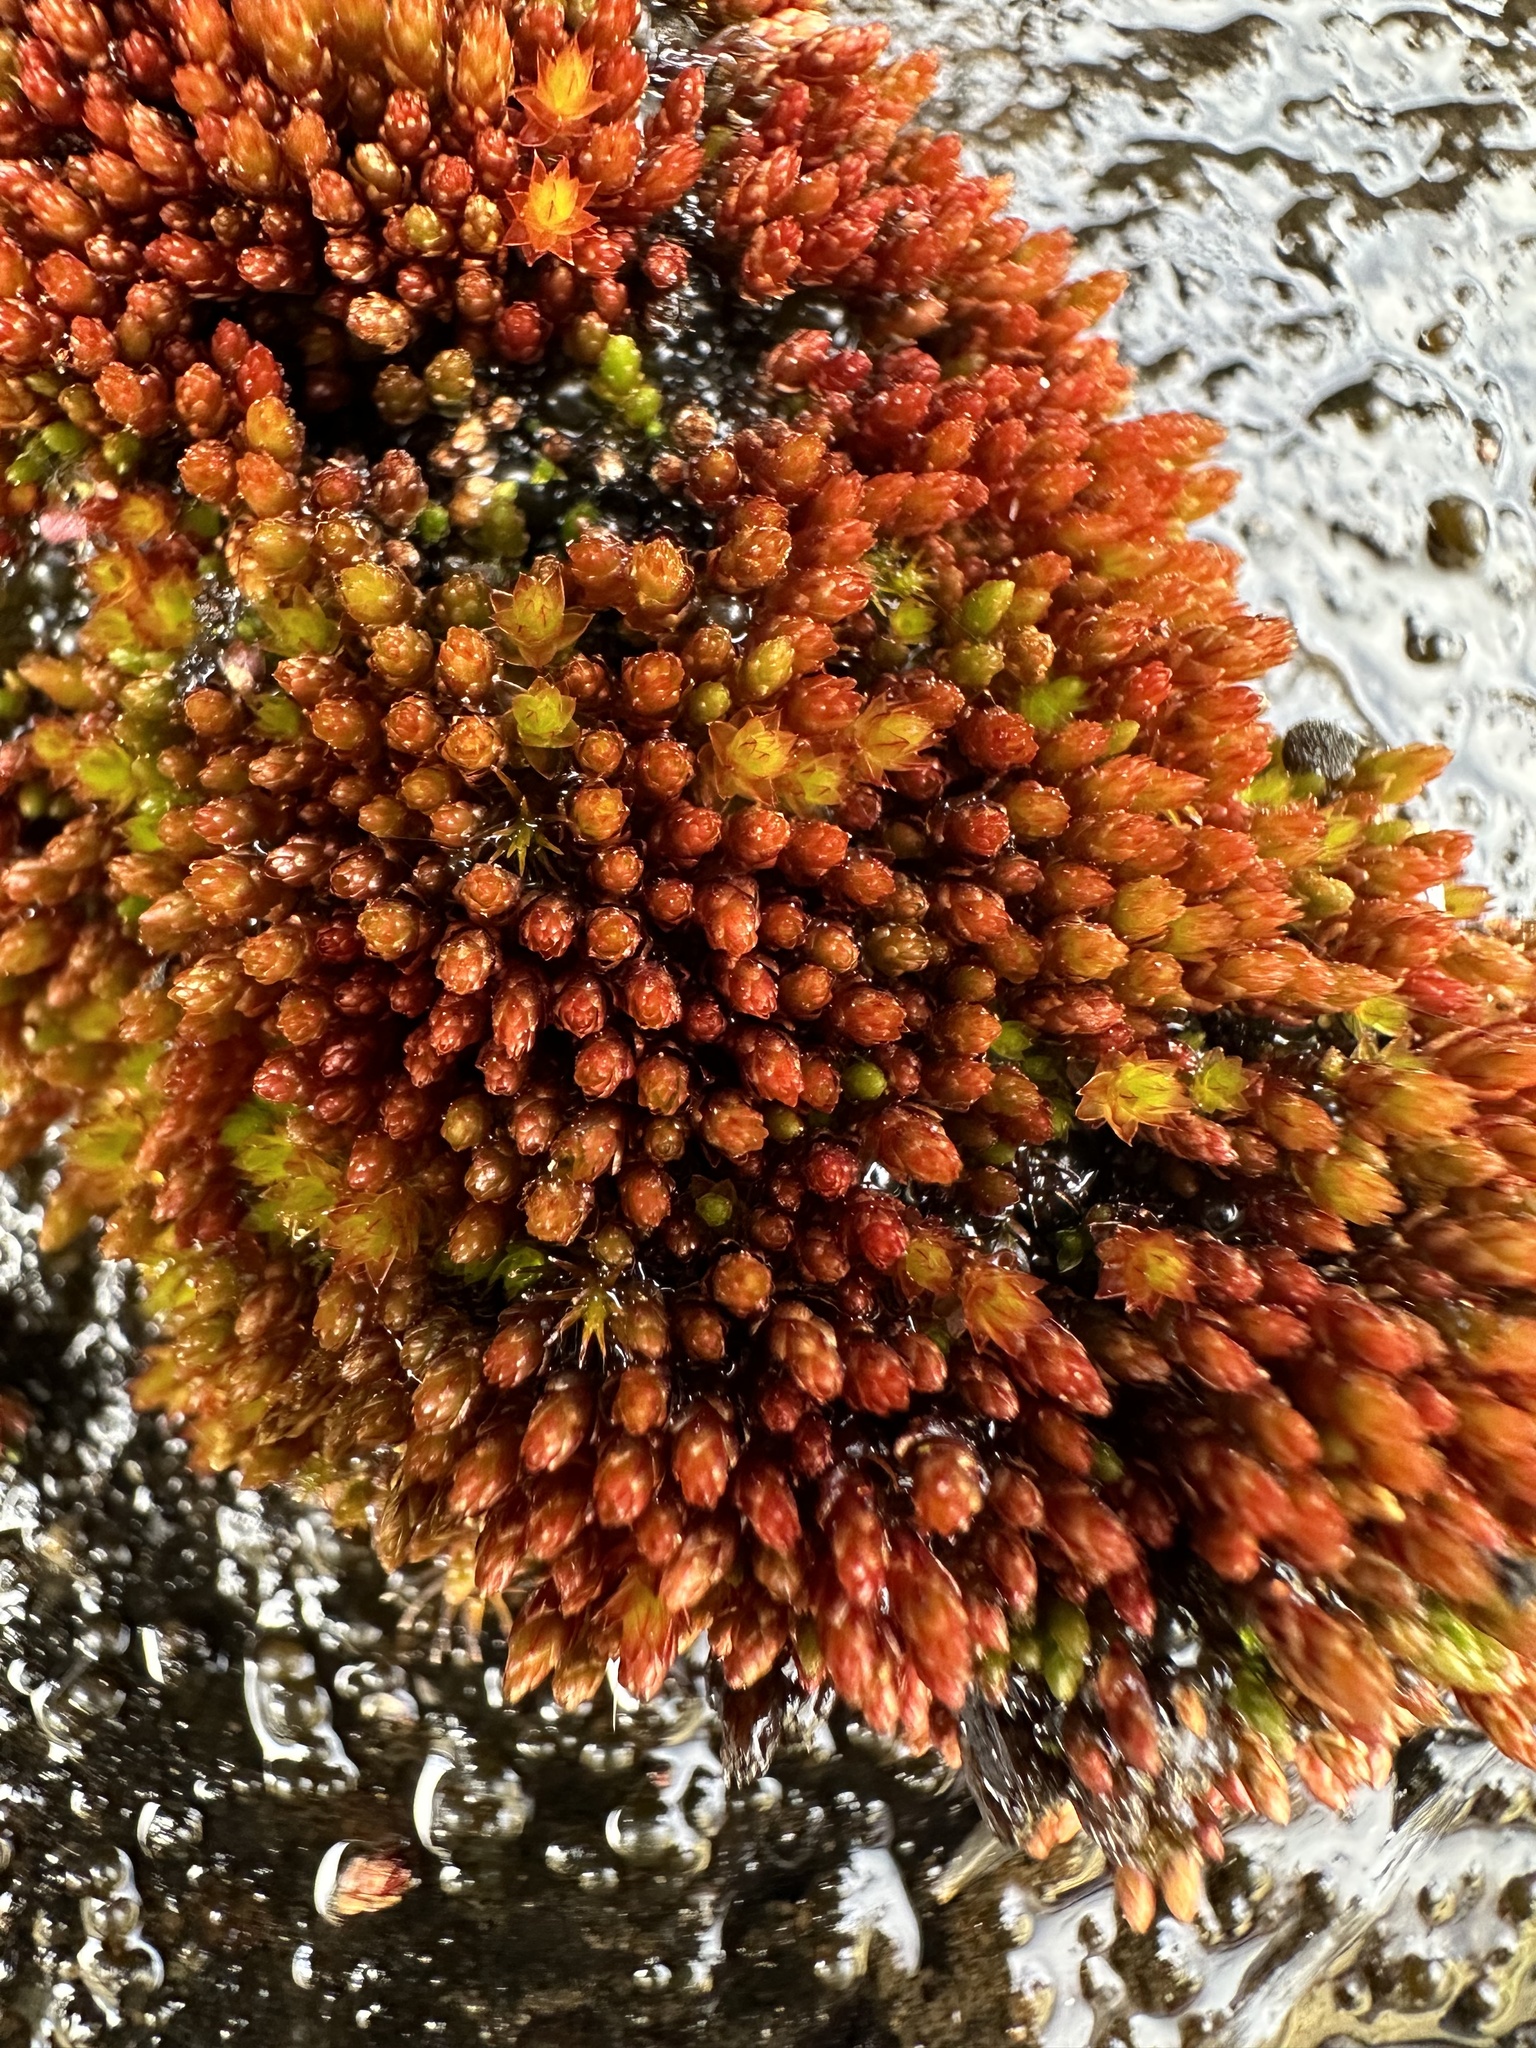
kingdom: Plantae
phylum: Bryophyta
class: Bryopsida
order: Bryales
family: Bryaceae
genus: Imbribryum
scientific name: Imbribryum miniatum
